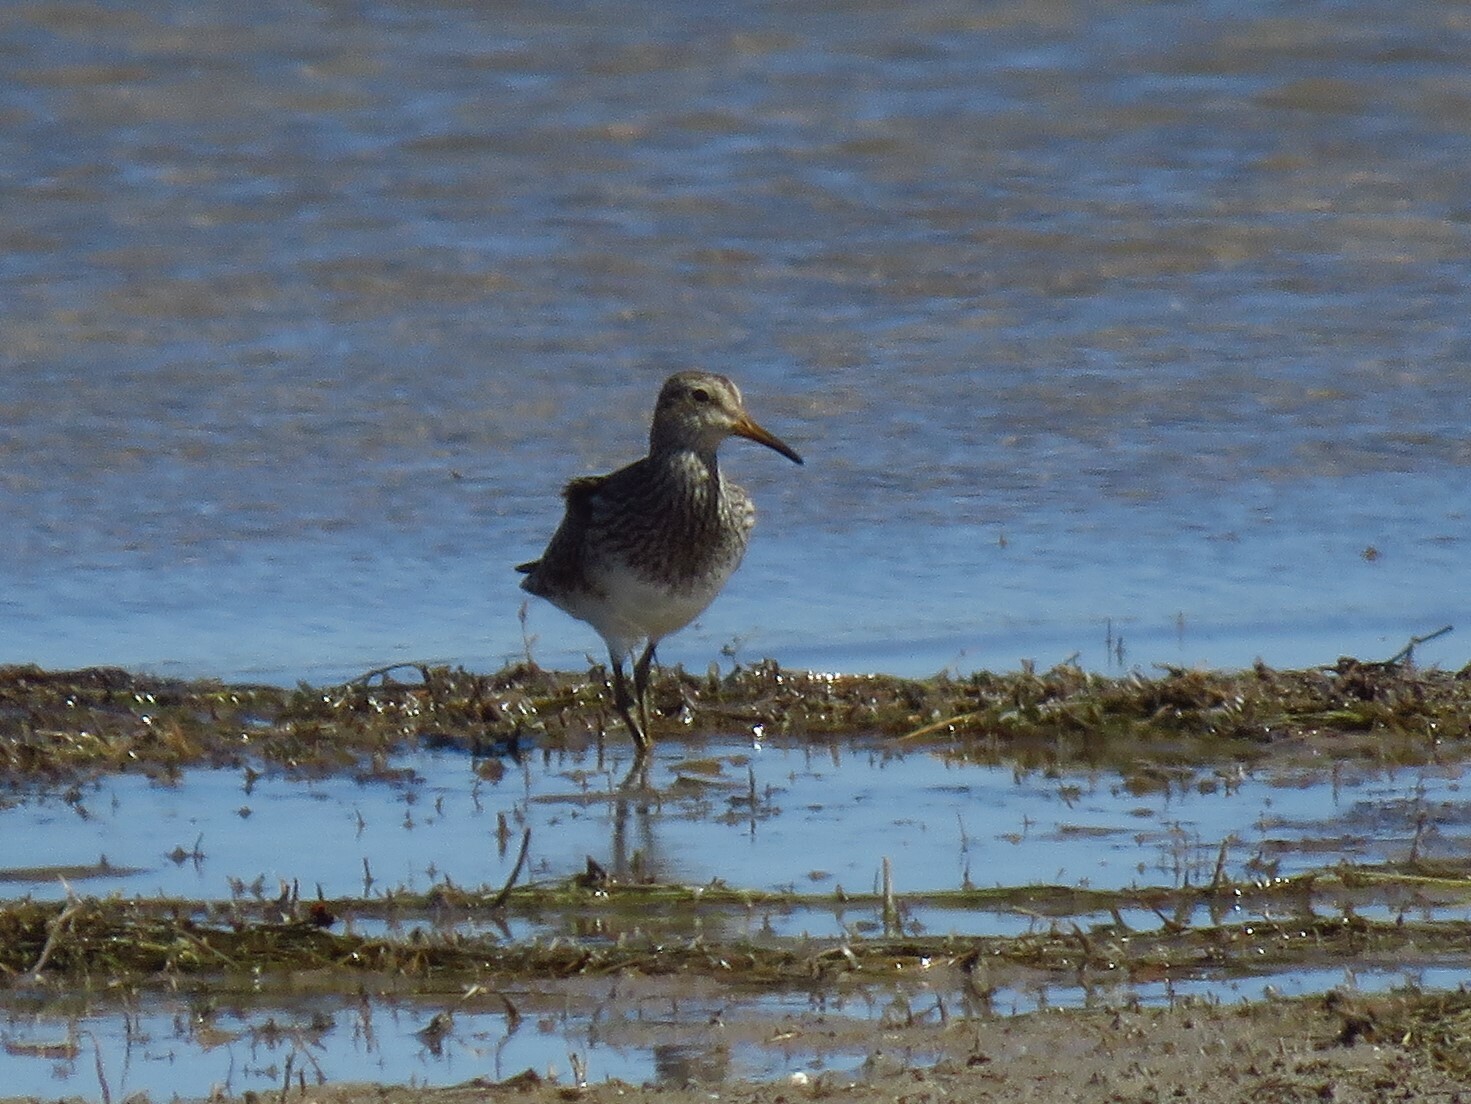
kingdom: Animalia
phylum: Chordata
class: Aves
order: Charadriiformes
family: Scolopacidae
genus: Calidris
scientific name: Calidris melanotos
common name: Pectoral sandpiper
